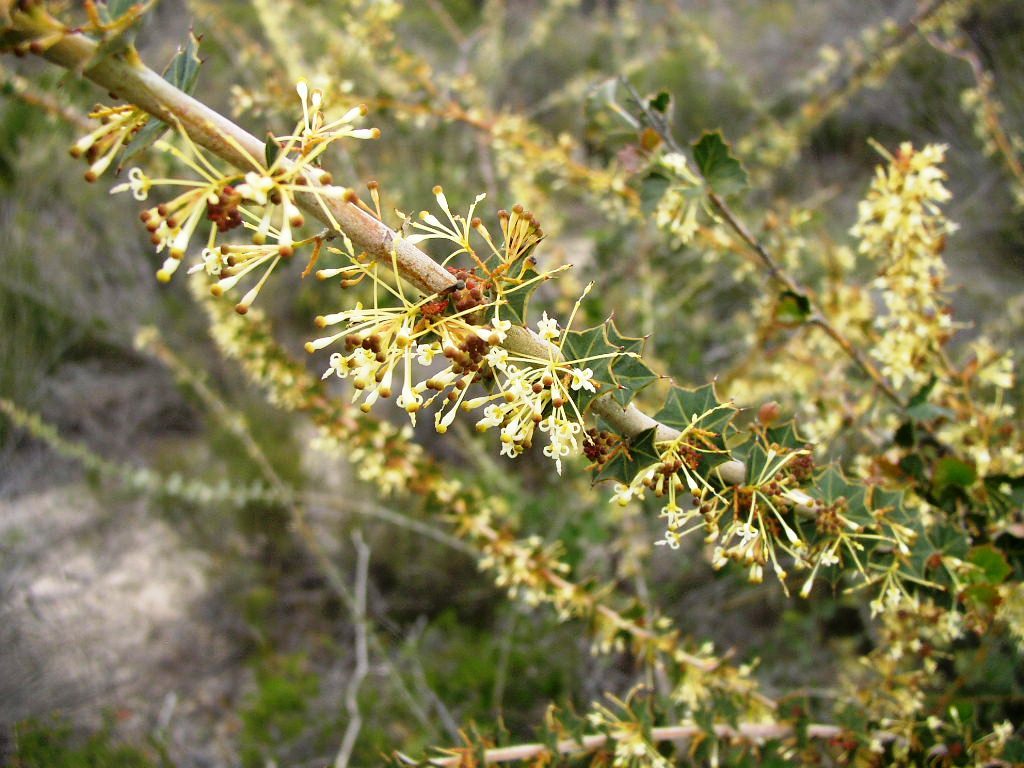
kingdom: Plantae
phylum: Tracheophyta
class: Magnoliopsida
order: Proteales
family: Proteaceae
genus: Grevillea
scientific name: Grevillea uniformis
